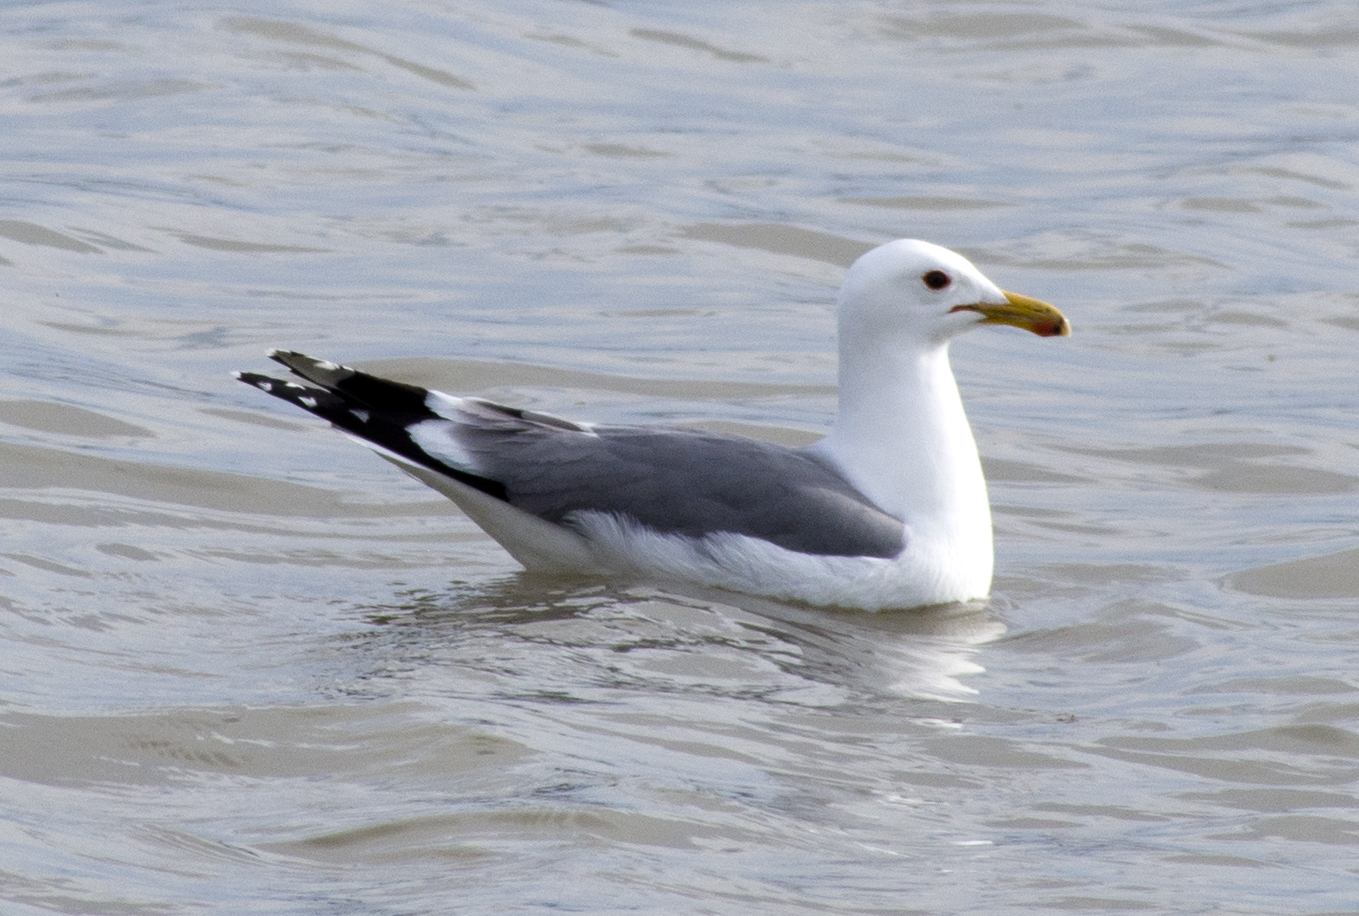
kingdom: Animalia
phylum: Chordata
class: Aves
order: Charadriiformes
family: Laridae
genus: Larus
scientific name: Larus californicus
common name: California gull
